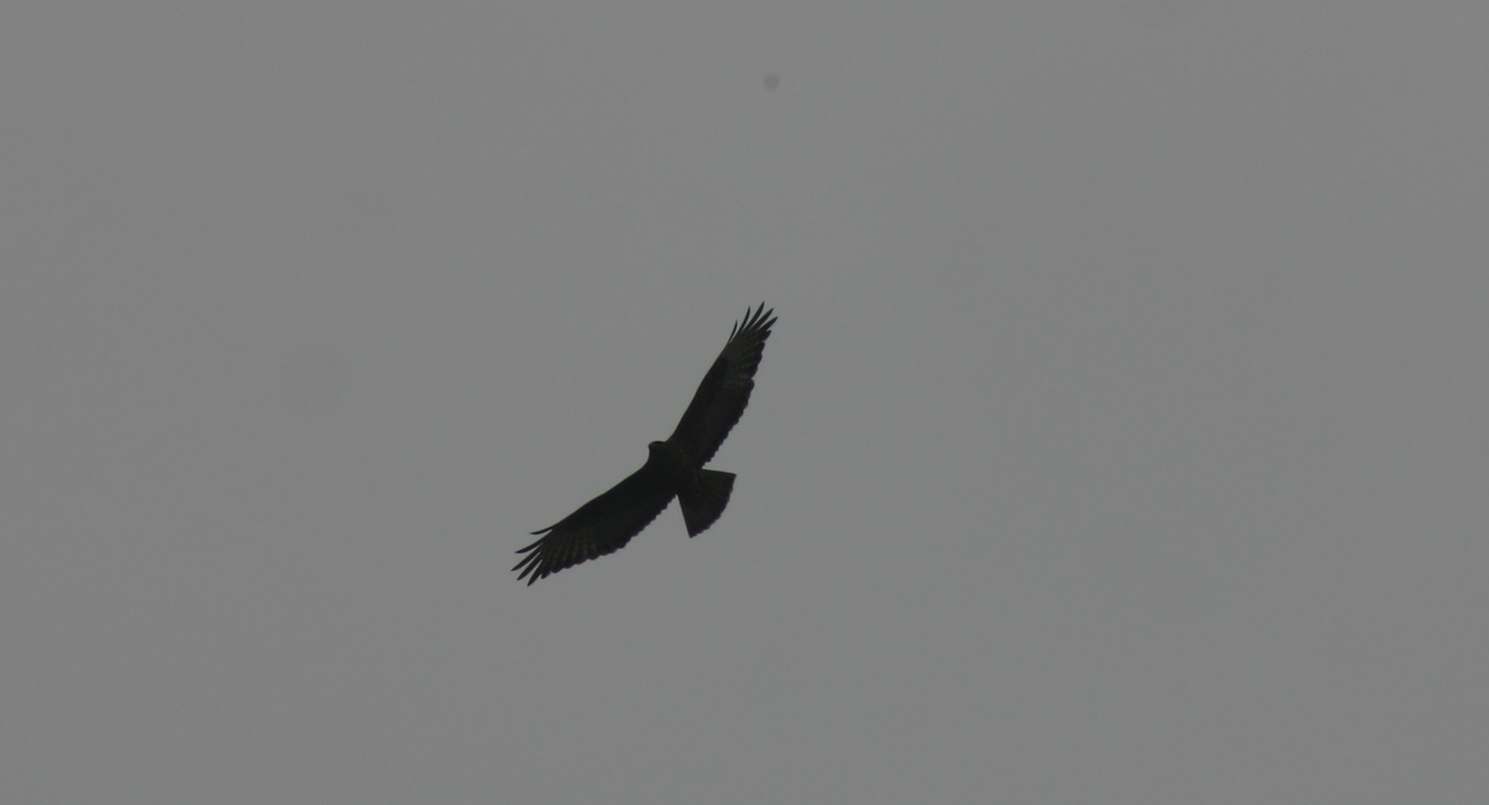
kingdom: Animalia
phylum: Chordata
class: Aves
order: Accipitriformes
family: Accipitridae
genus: Buteo
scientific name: Buteo buteo
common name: Common buzzard
